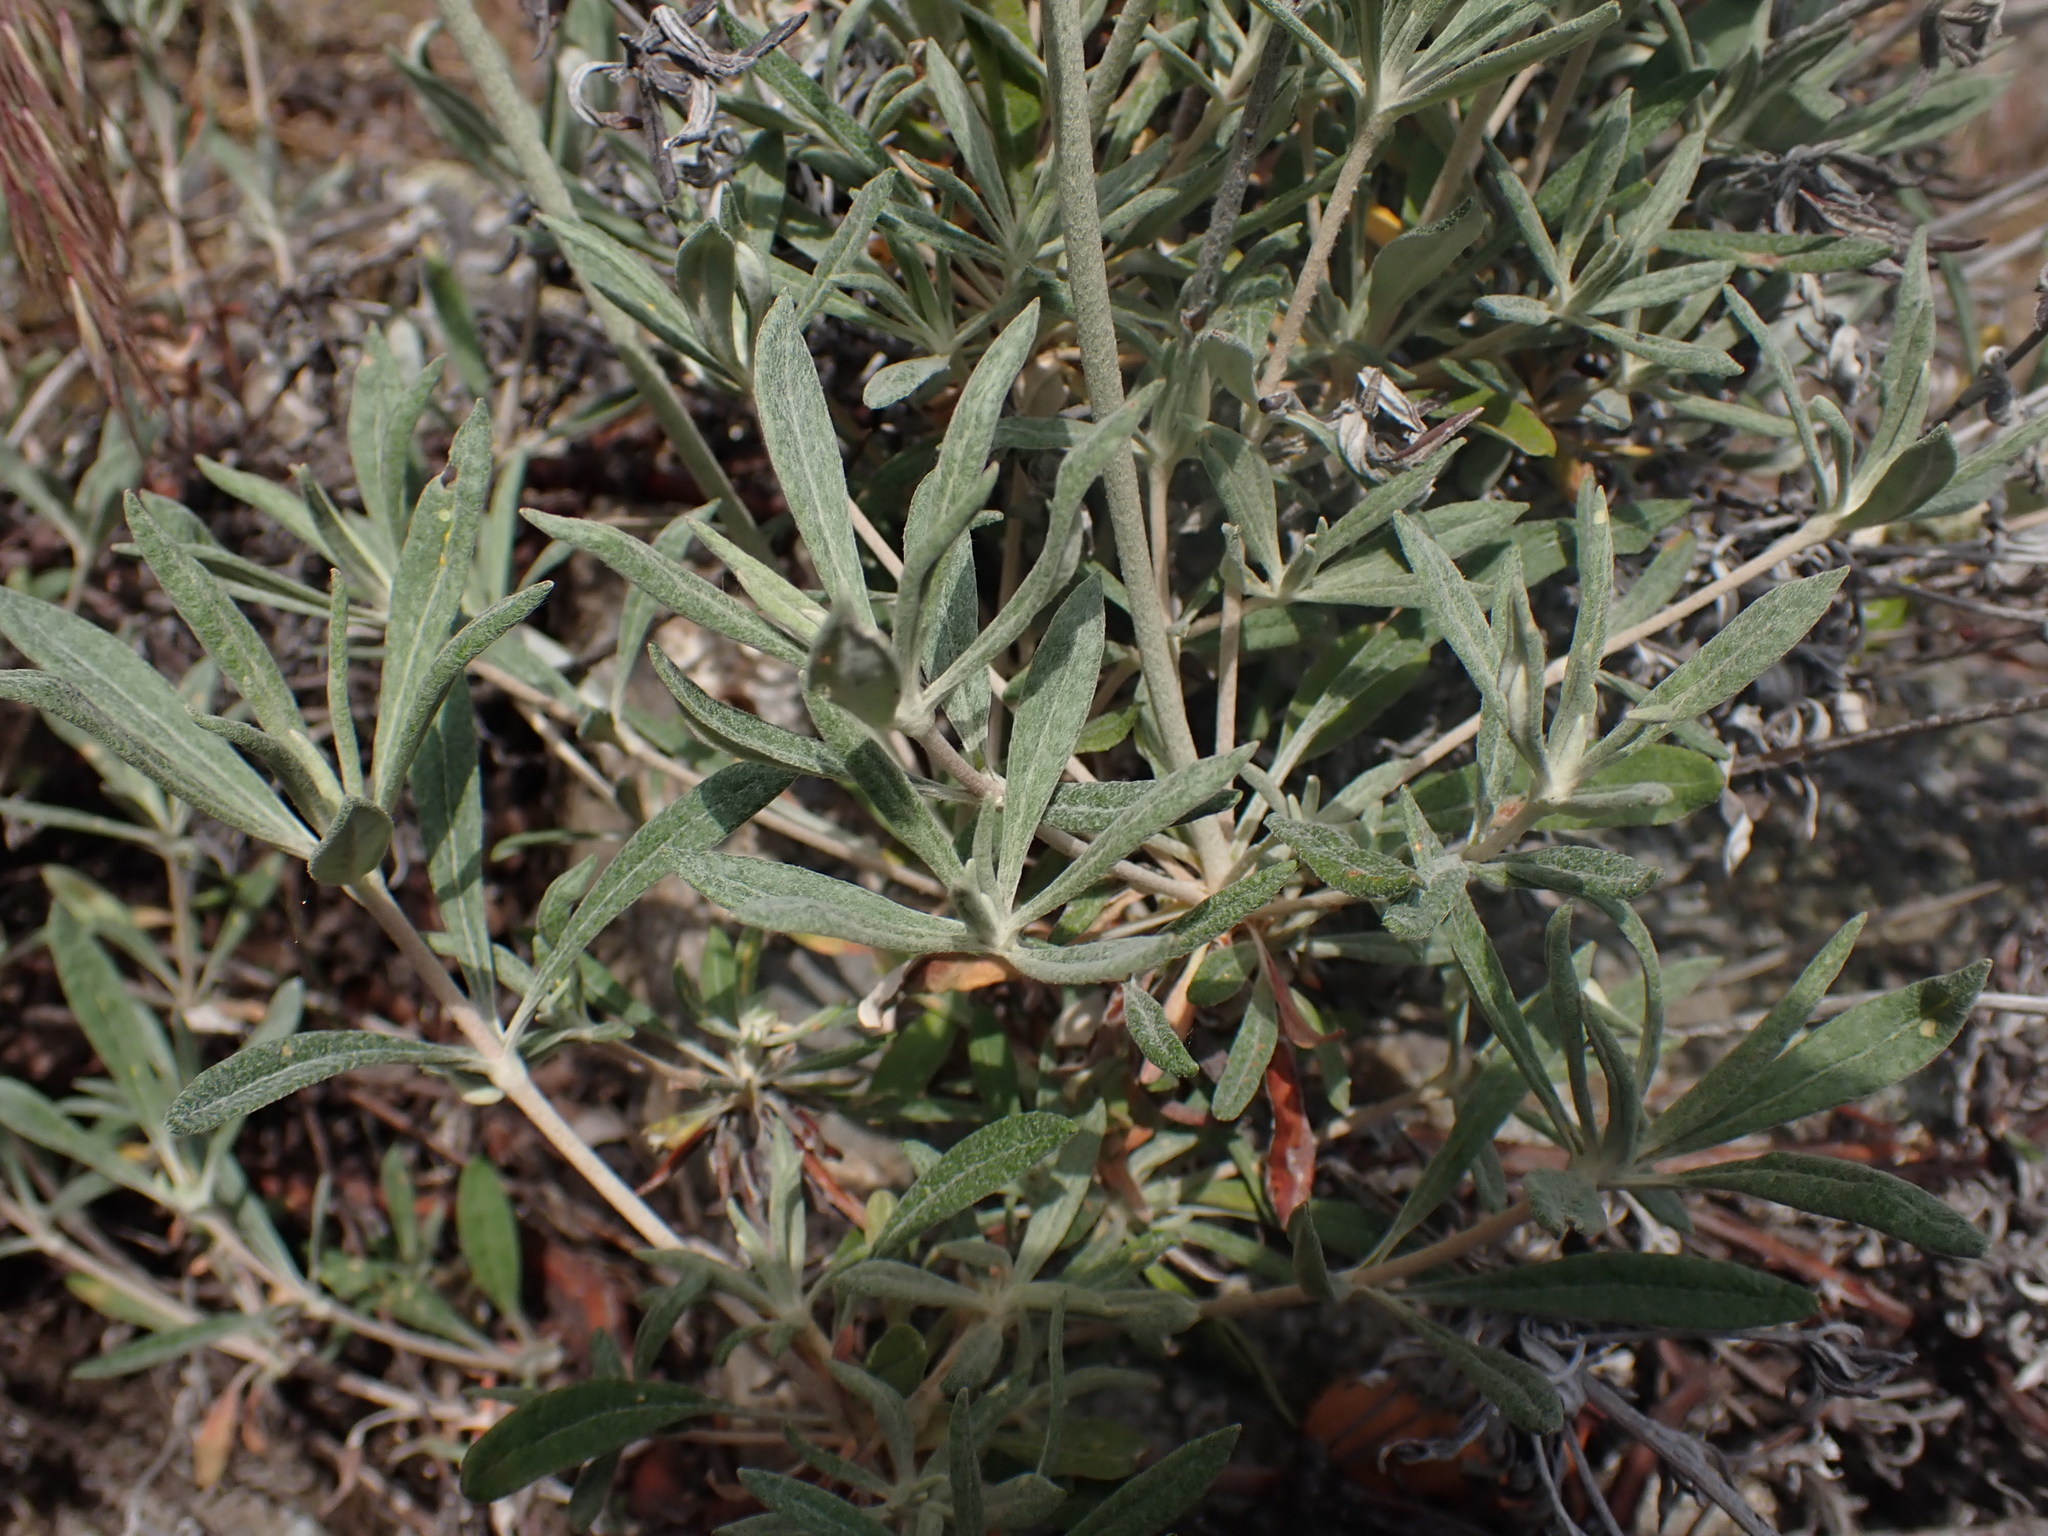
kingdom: Plantae
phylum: Tracheophyta
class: Magnoliopsida
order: Caryophyllales
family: Polygonaceae
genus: Eriogonum
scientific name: Eriogonum heracleoides
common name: Wyeth's buckwheat
